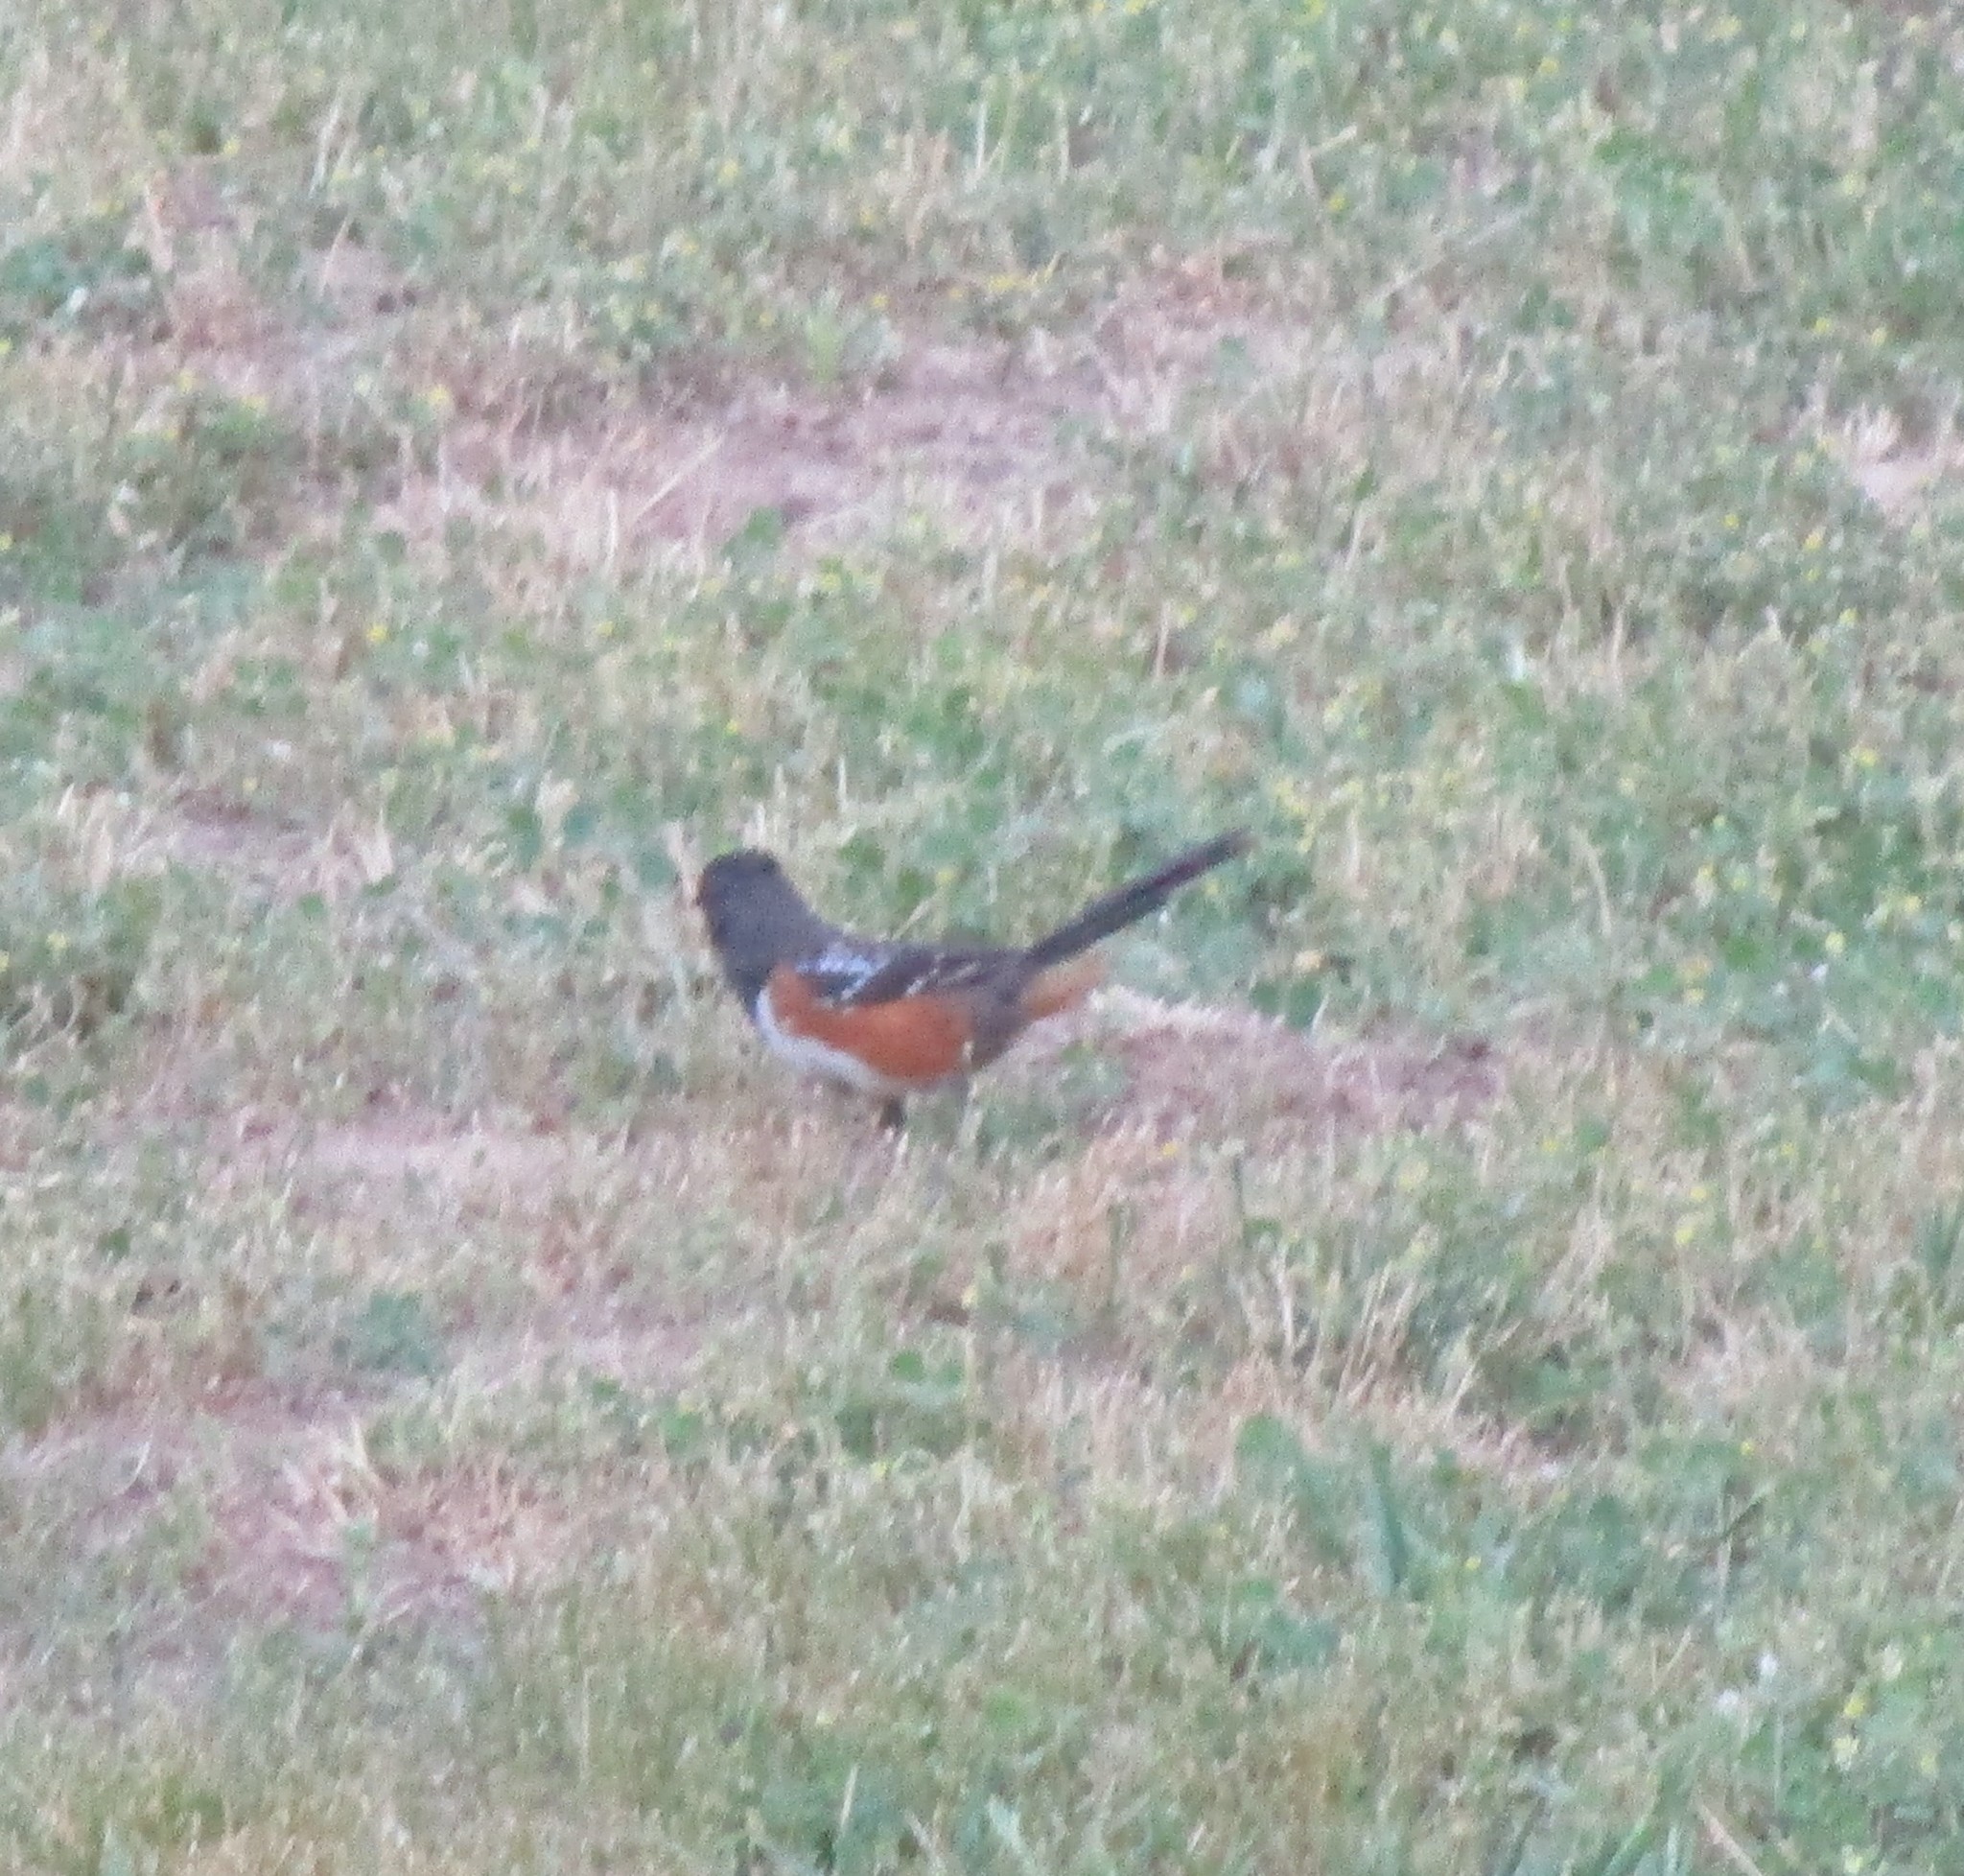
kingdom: Animalia
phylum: Chordata
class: Aves
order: Passeriformes
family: Passerellidae
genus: Pipilo
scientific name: Pipilo maculatus
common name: Spotted towhee
